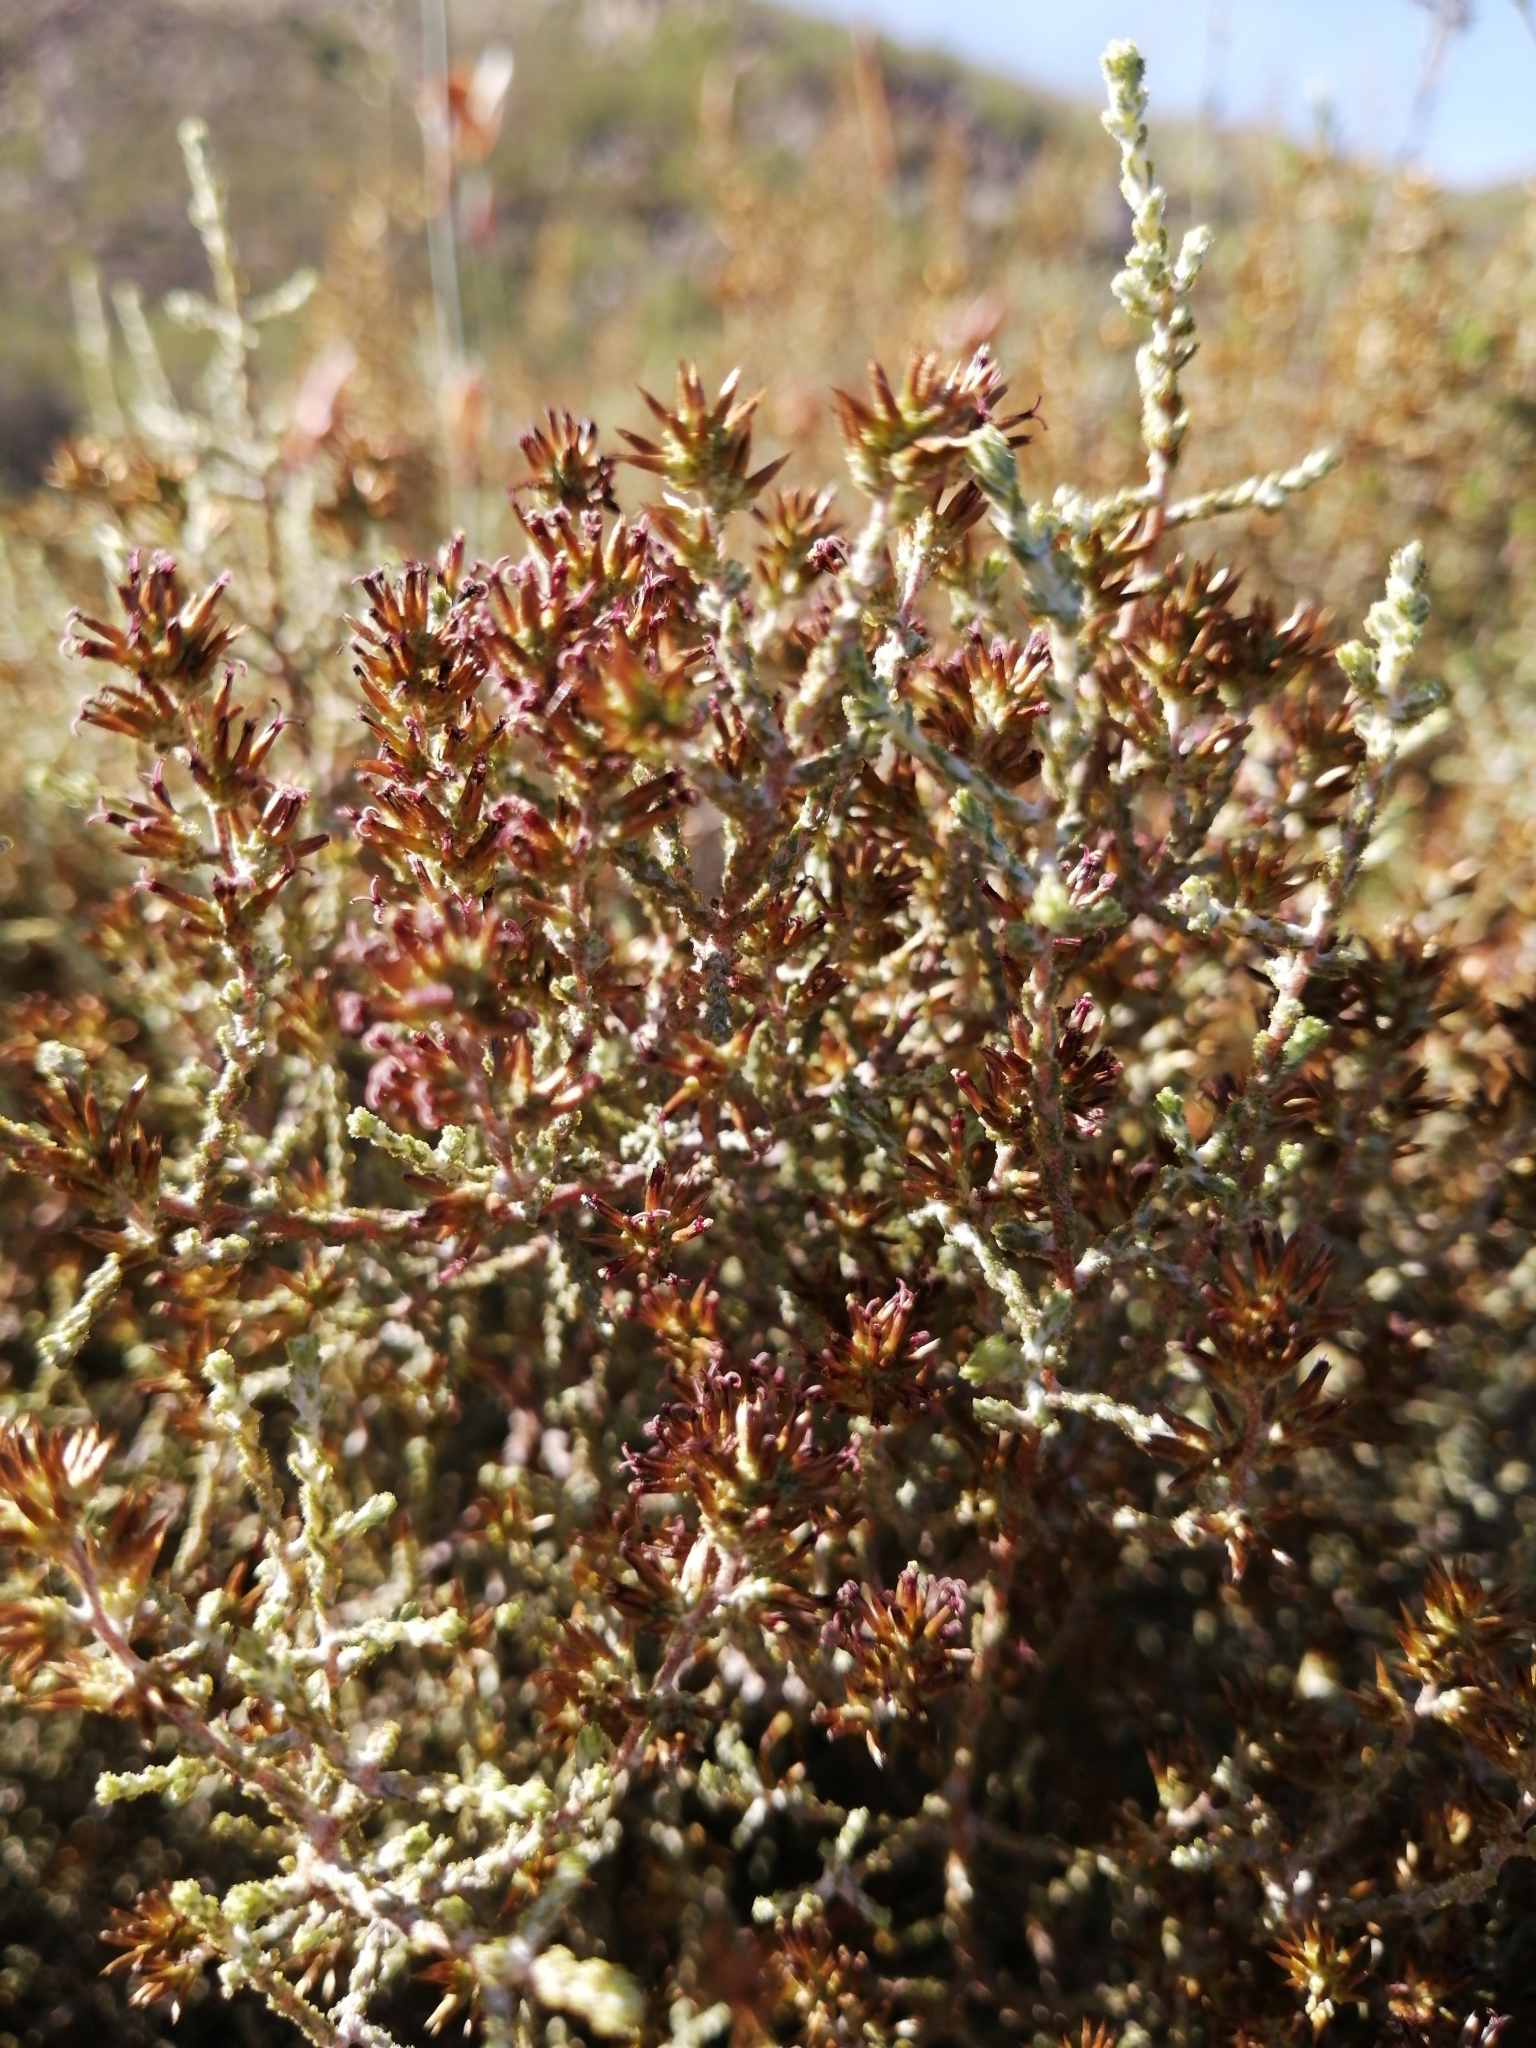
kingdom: Plantae
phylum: Tracheophyta
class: Magnoliopsida
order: Asterales
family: Asteraceae
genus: Myrovernix
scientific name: Myrovernix intricata
